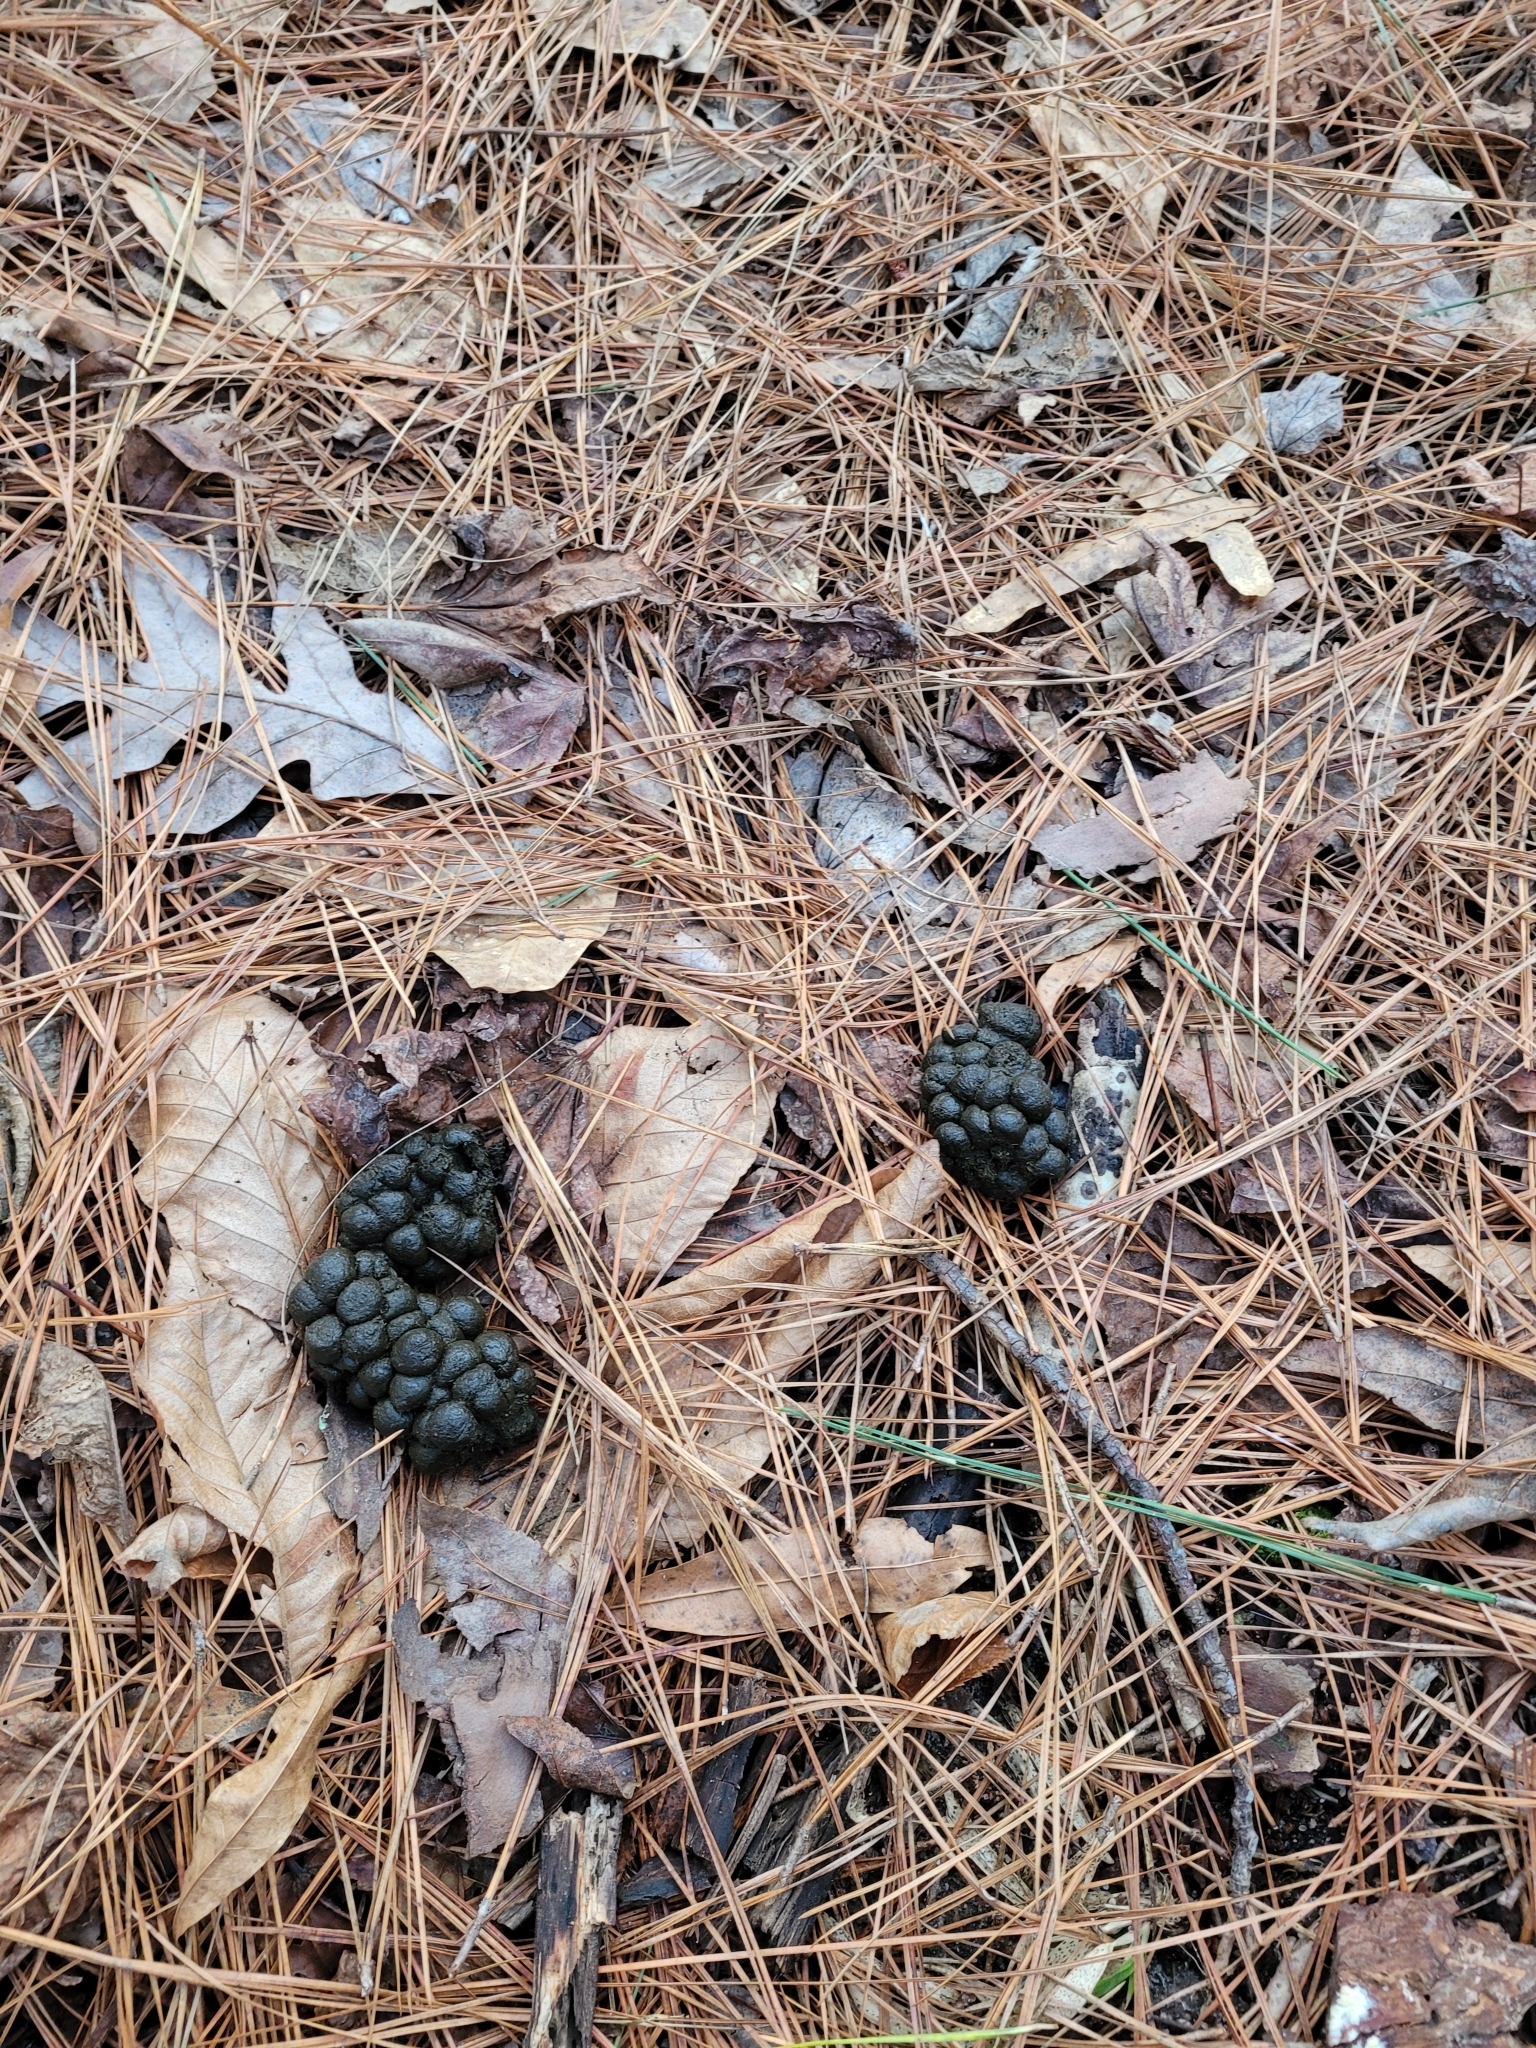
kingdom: Animalia
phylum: Chordata
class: Mammalia
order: Artiodactyla
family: Cervidae
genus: Odocoileus
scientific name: Odocoileus virginianus
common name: White-tailed deer
